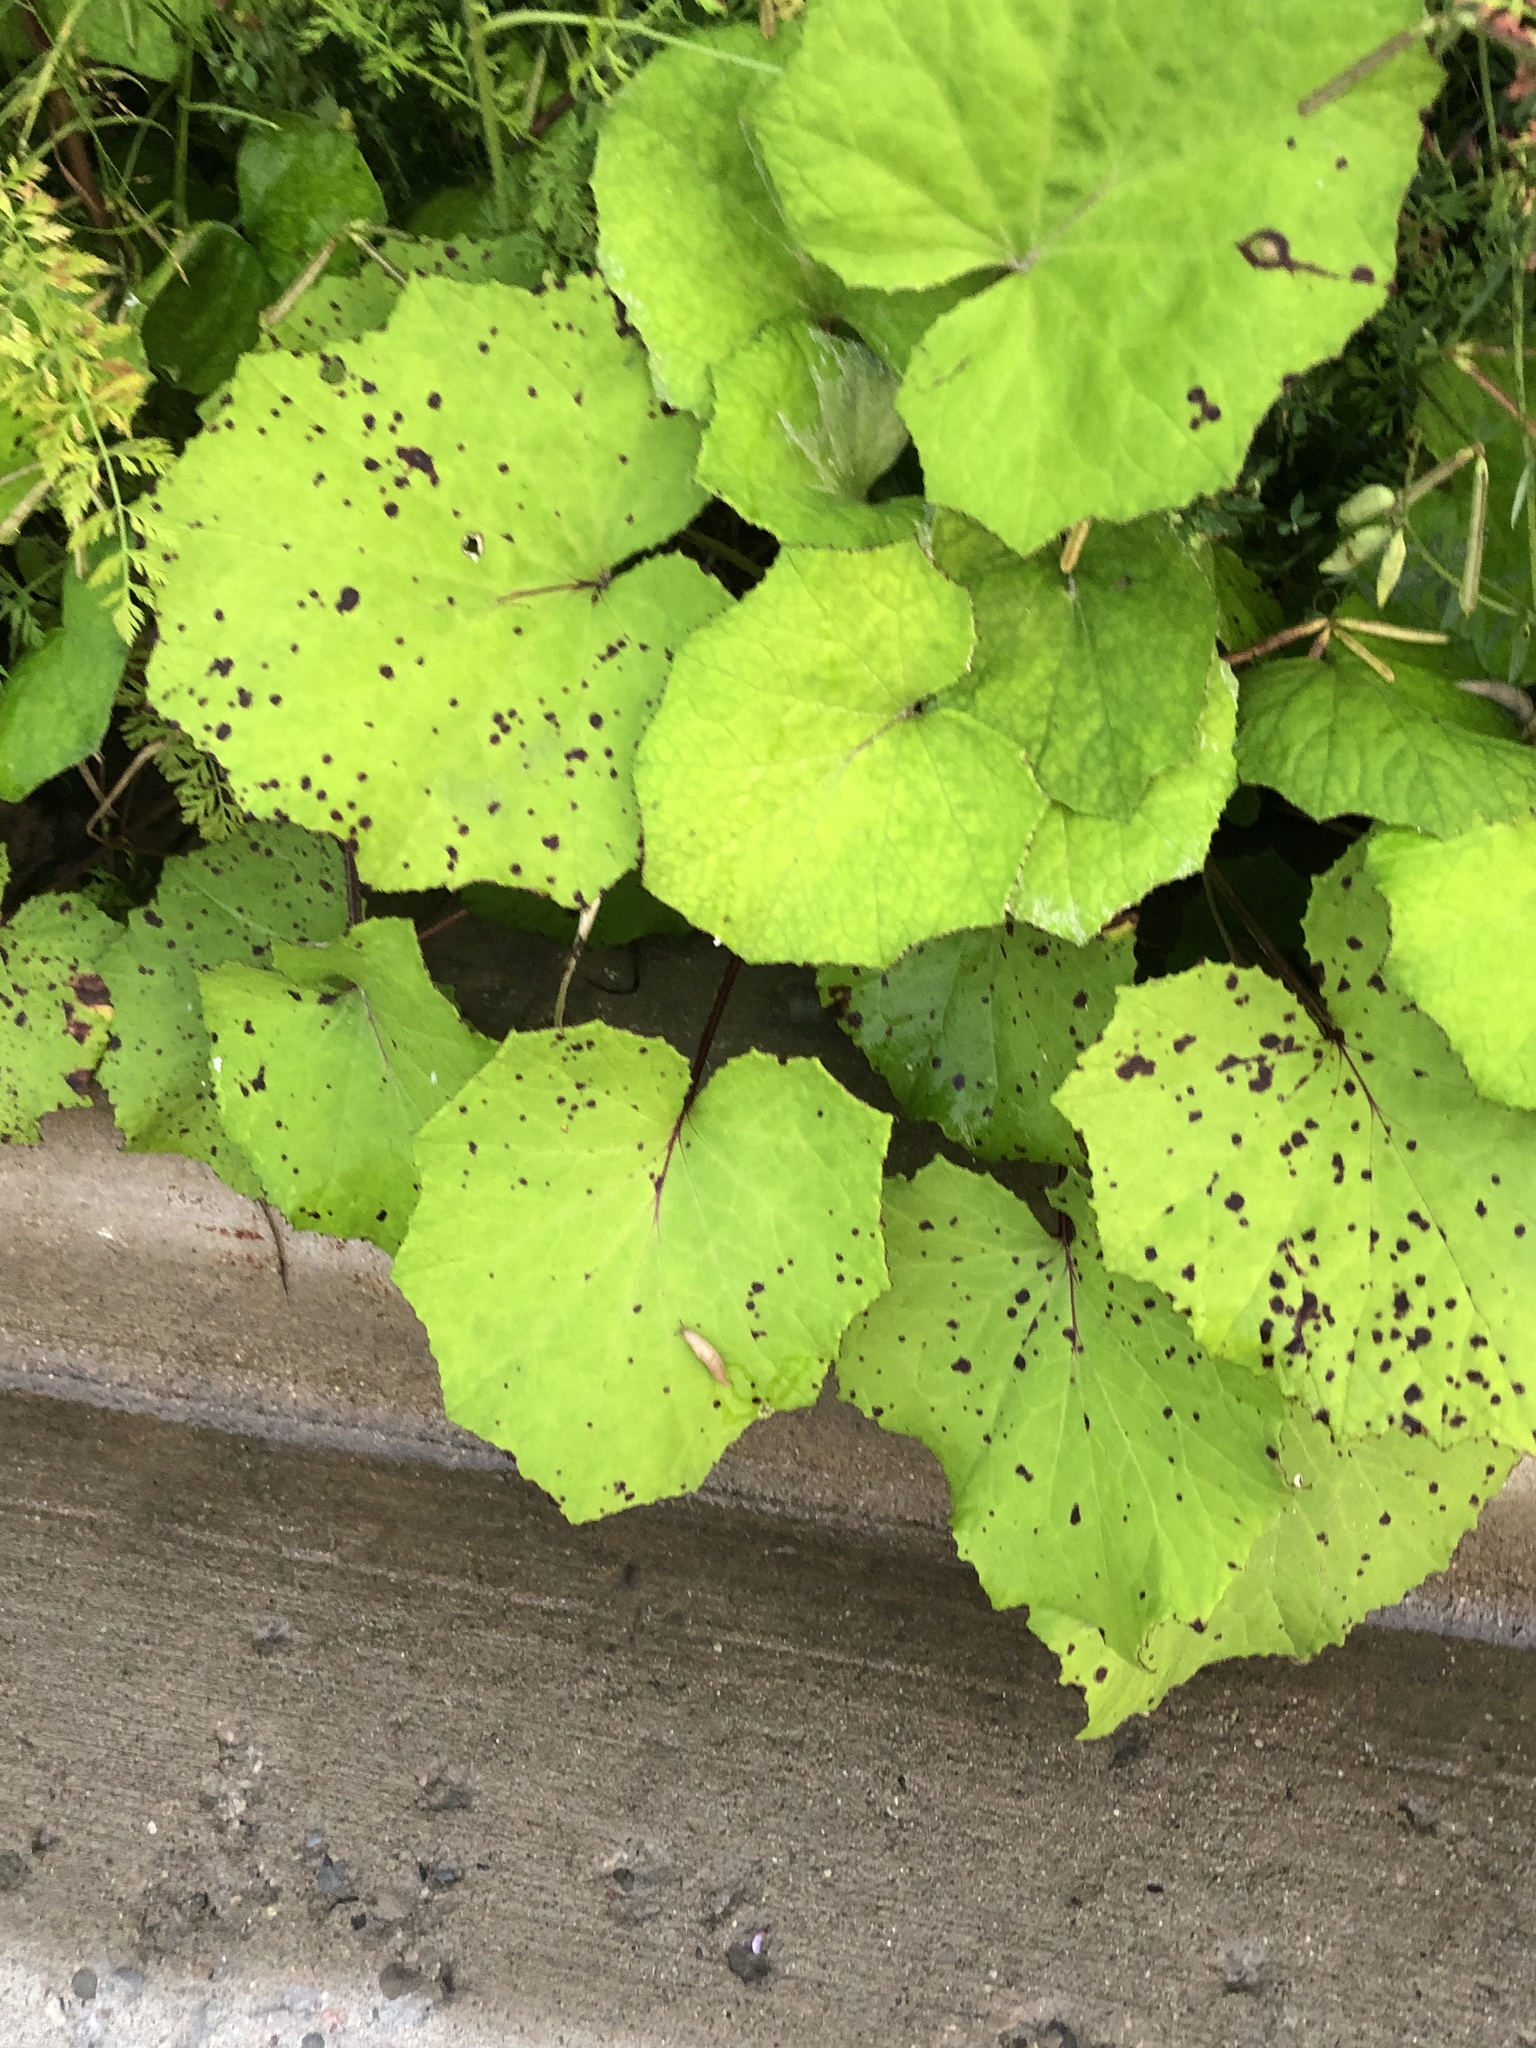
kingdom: Plantae
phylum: Tracheophyta
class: Magnoliopsida
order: Asterales
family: Asteraceae
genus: Tussilago
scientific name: Tussilago farfara
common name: Coltsfoot
